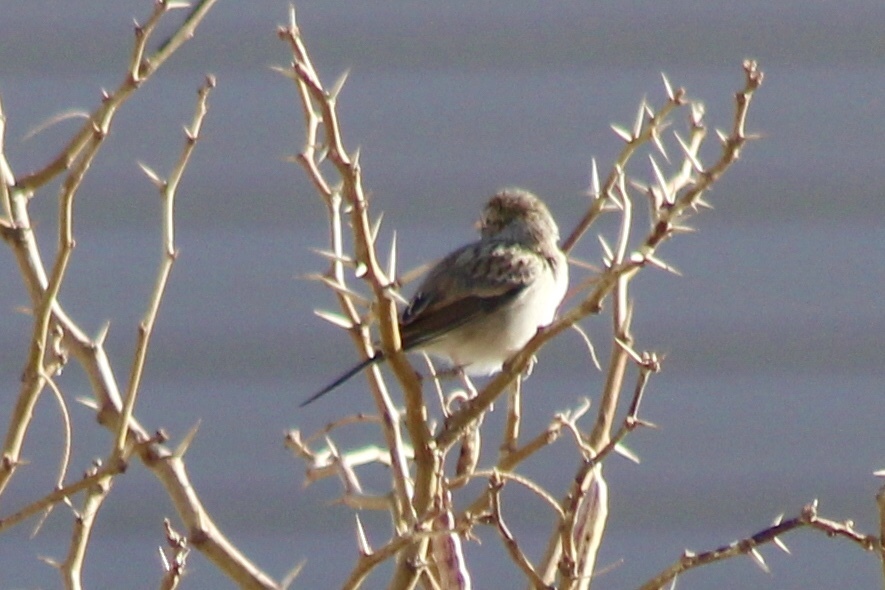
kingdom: Animalia
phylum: Chordata
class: Aves
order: Passeriformes
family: Passerellidae
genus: Spizella
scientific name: Spizella breweri
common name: Brewer's sparrow
